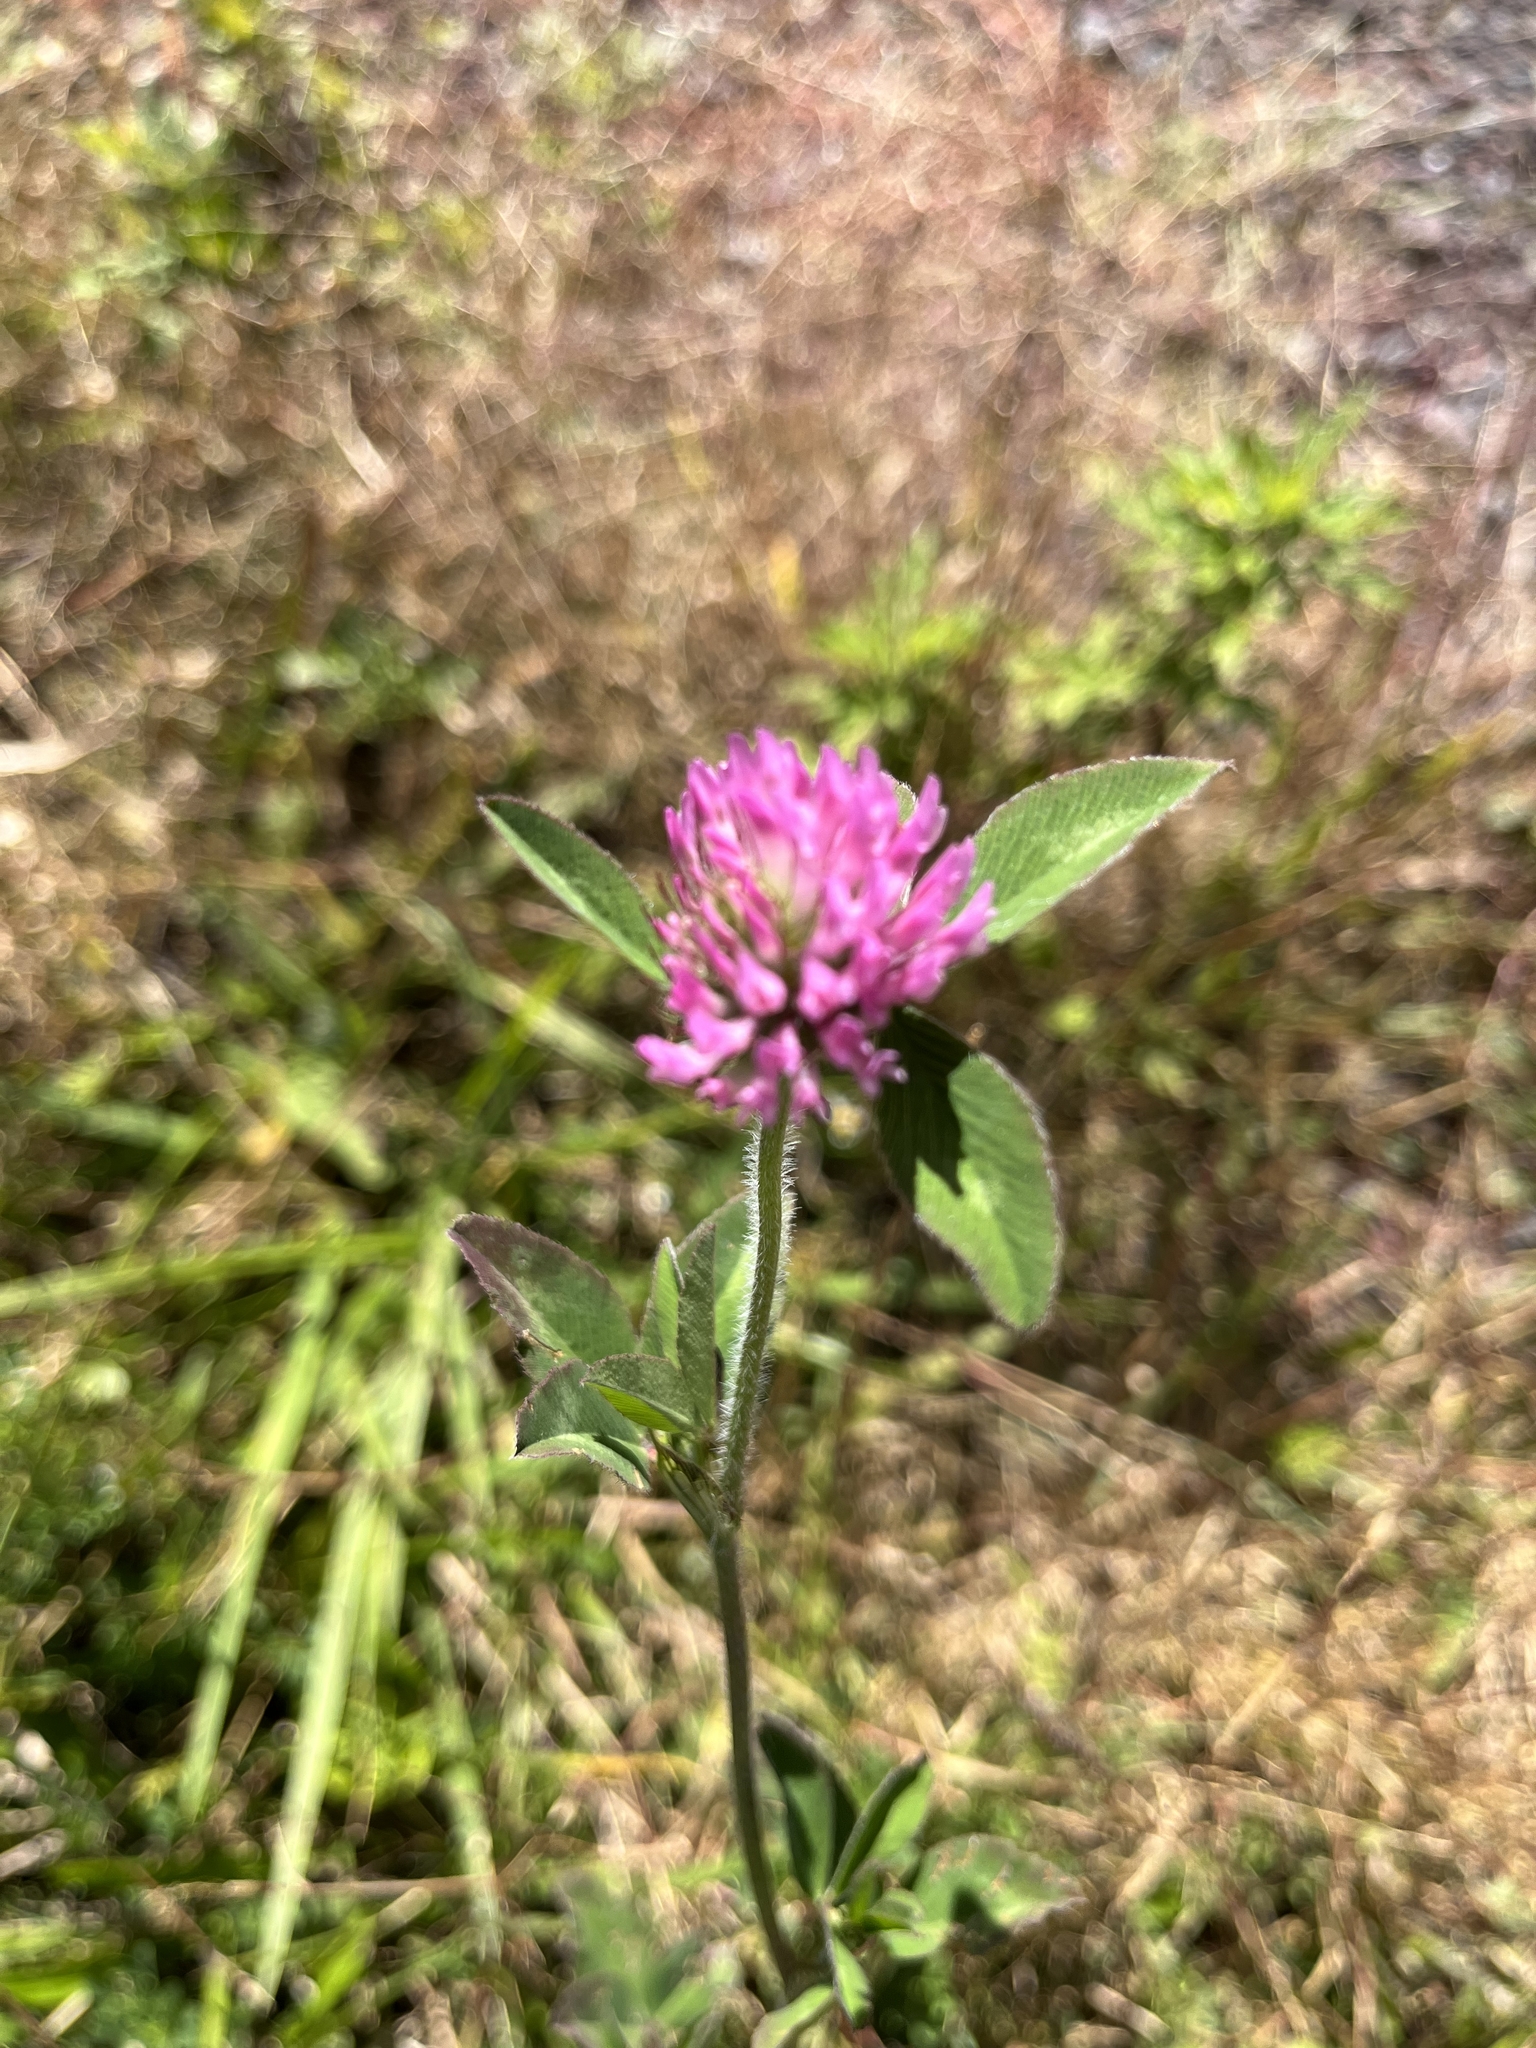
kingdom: Plantae
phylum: Tracheophyta
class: Magnoliopsida
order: Fabales
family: Fabaceae
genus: Trifolium
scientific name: Trifolium pratense
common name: Red clover
